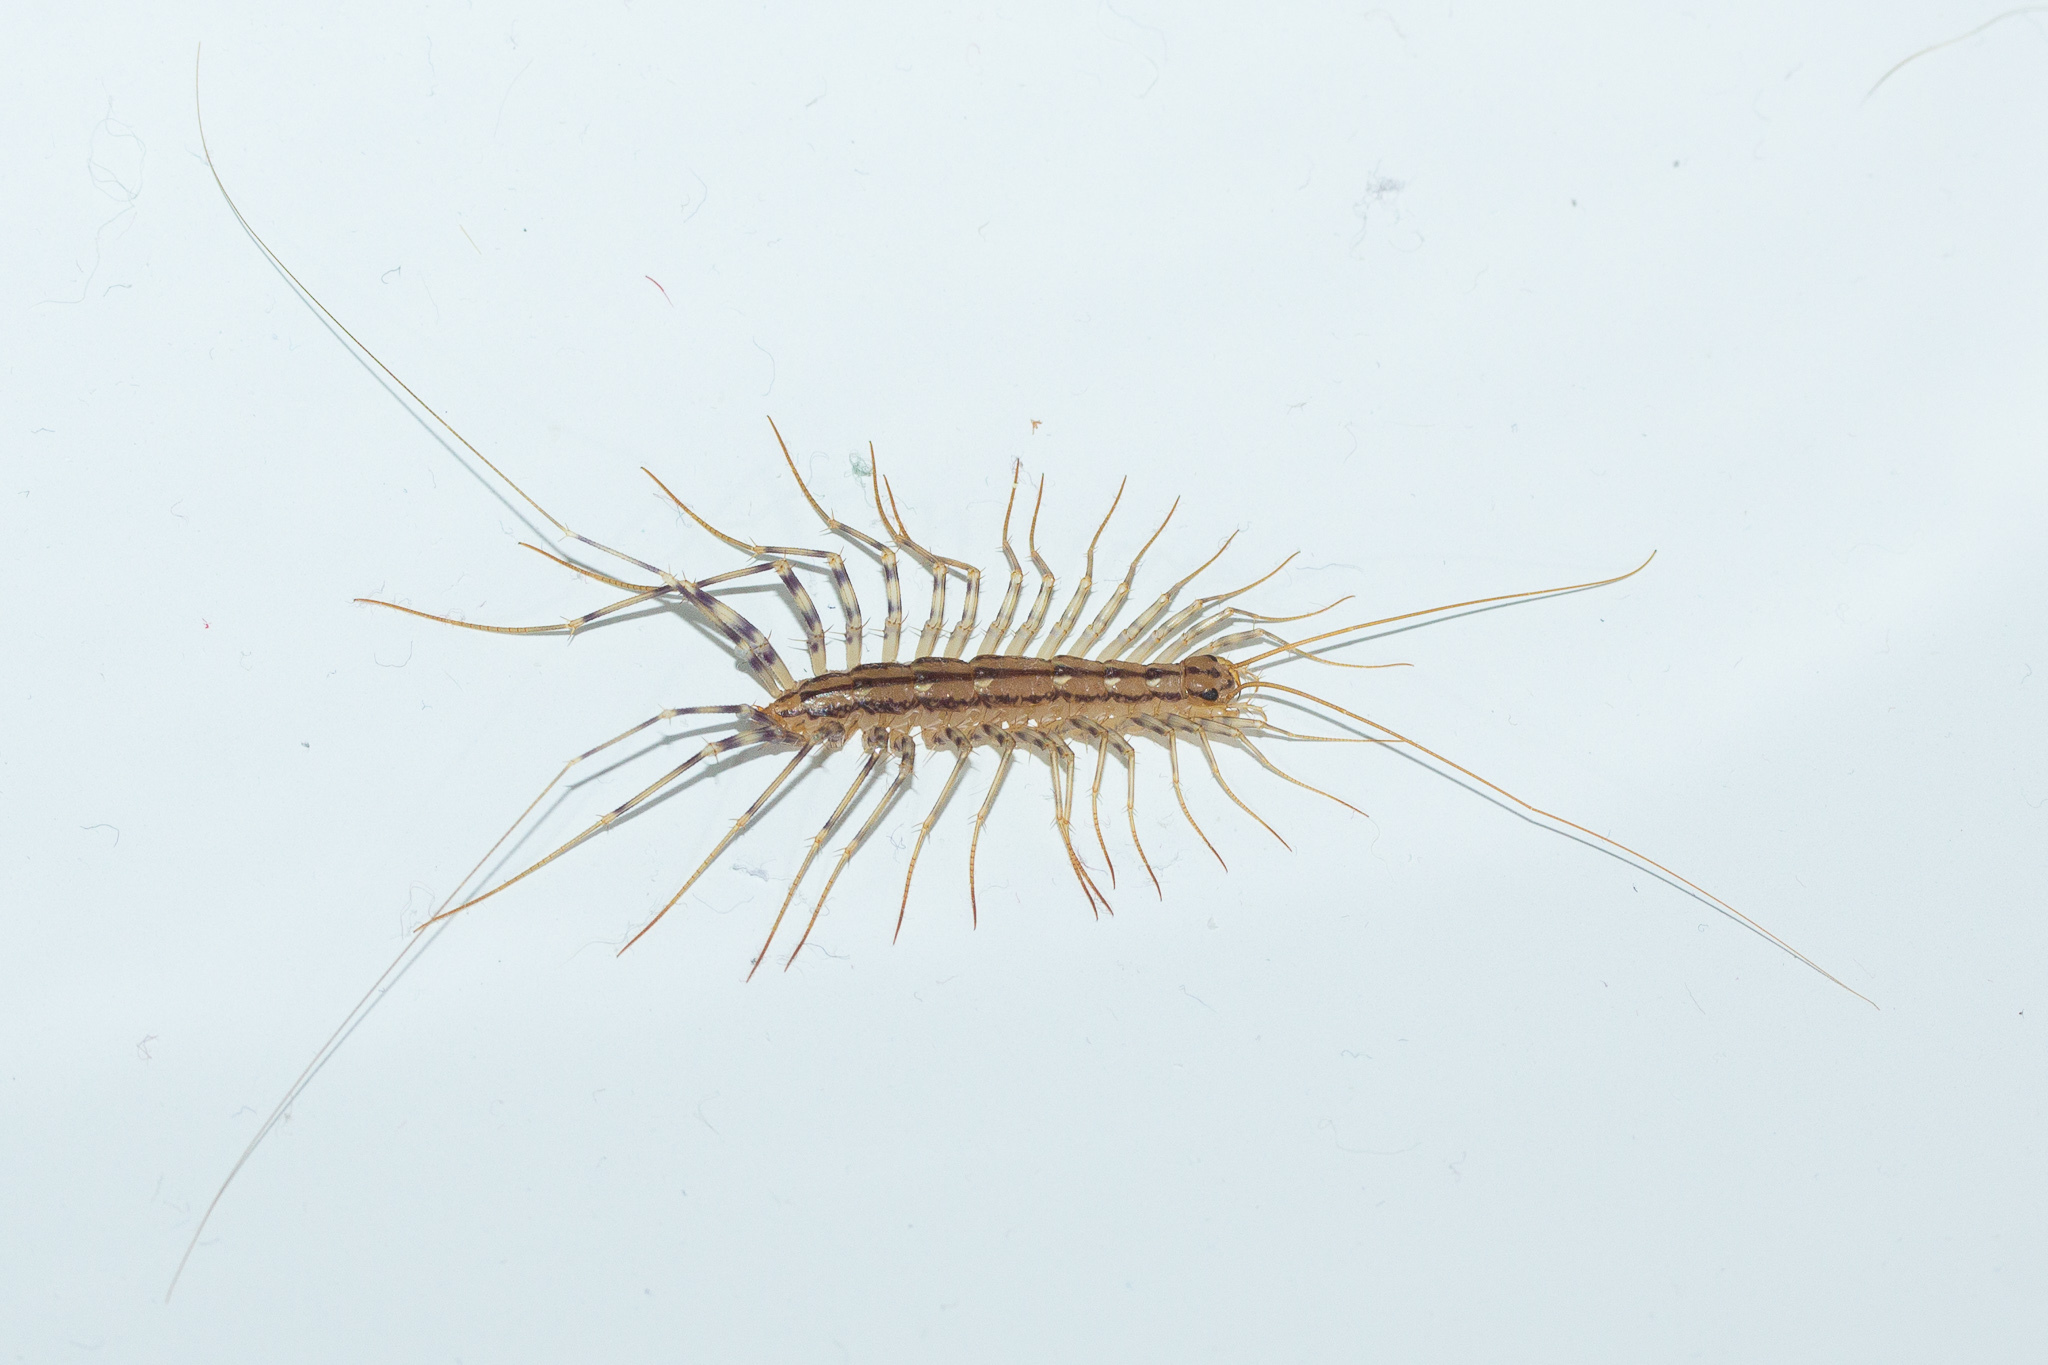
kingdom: Animalia
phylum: Arthropoda
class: Chilopoda
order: Scutigeromorpha
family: Scutigeridae
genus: Scutigera
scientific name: Scutigera coleoptrata
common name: House centipede
